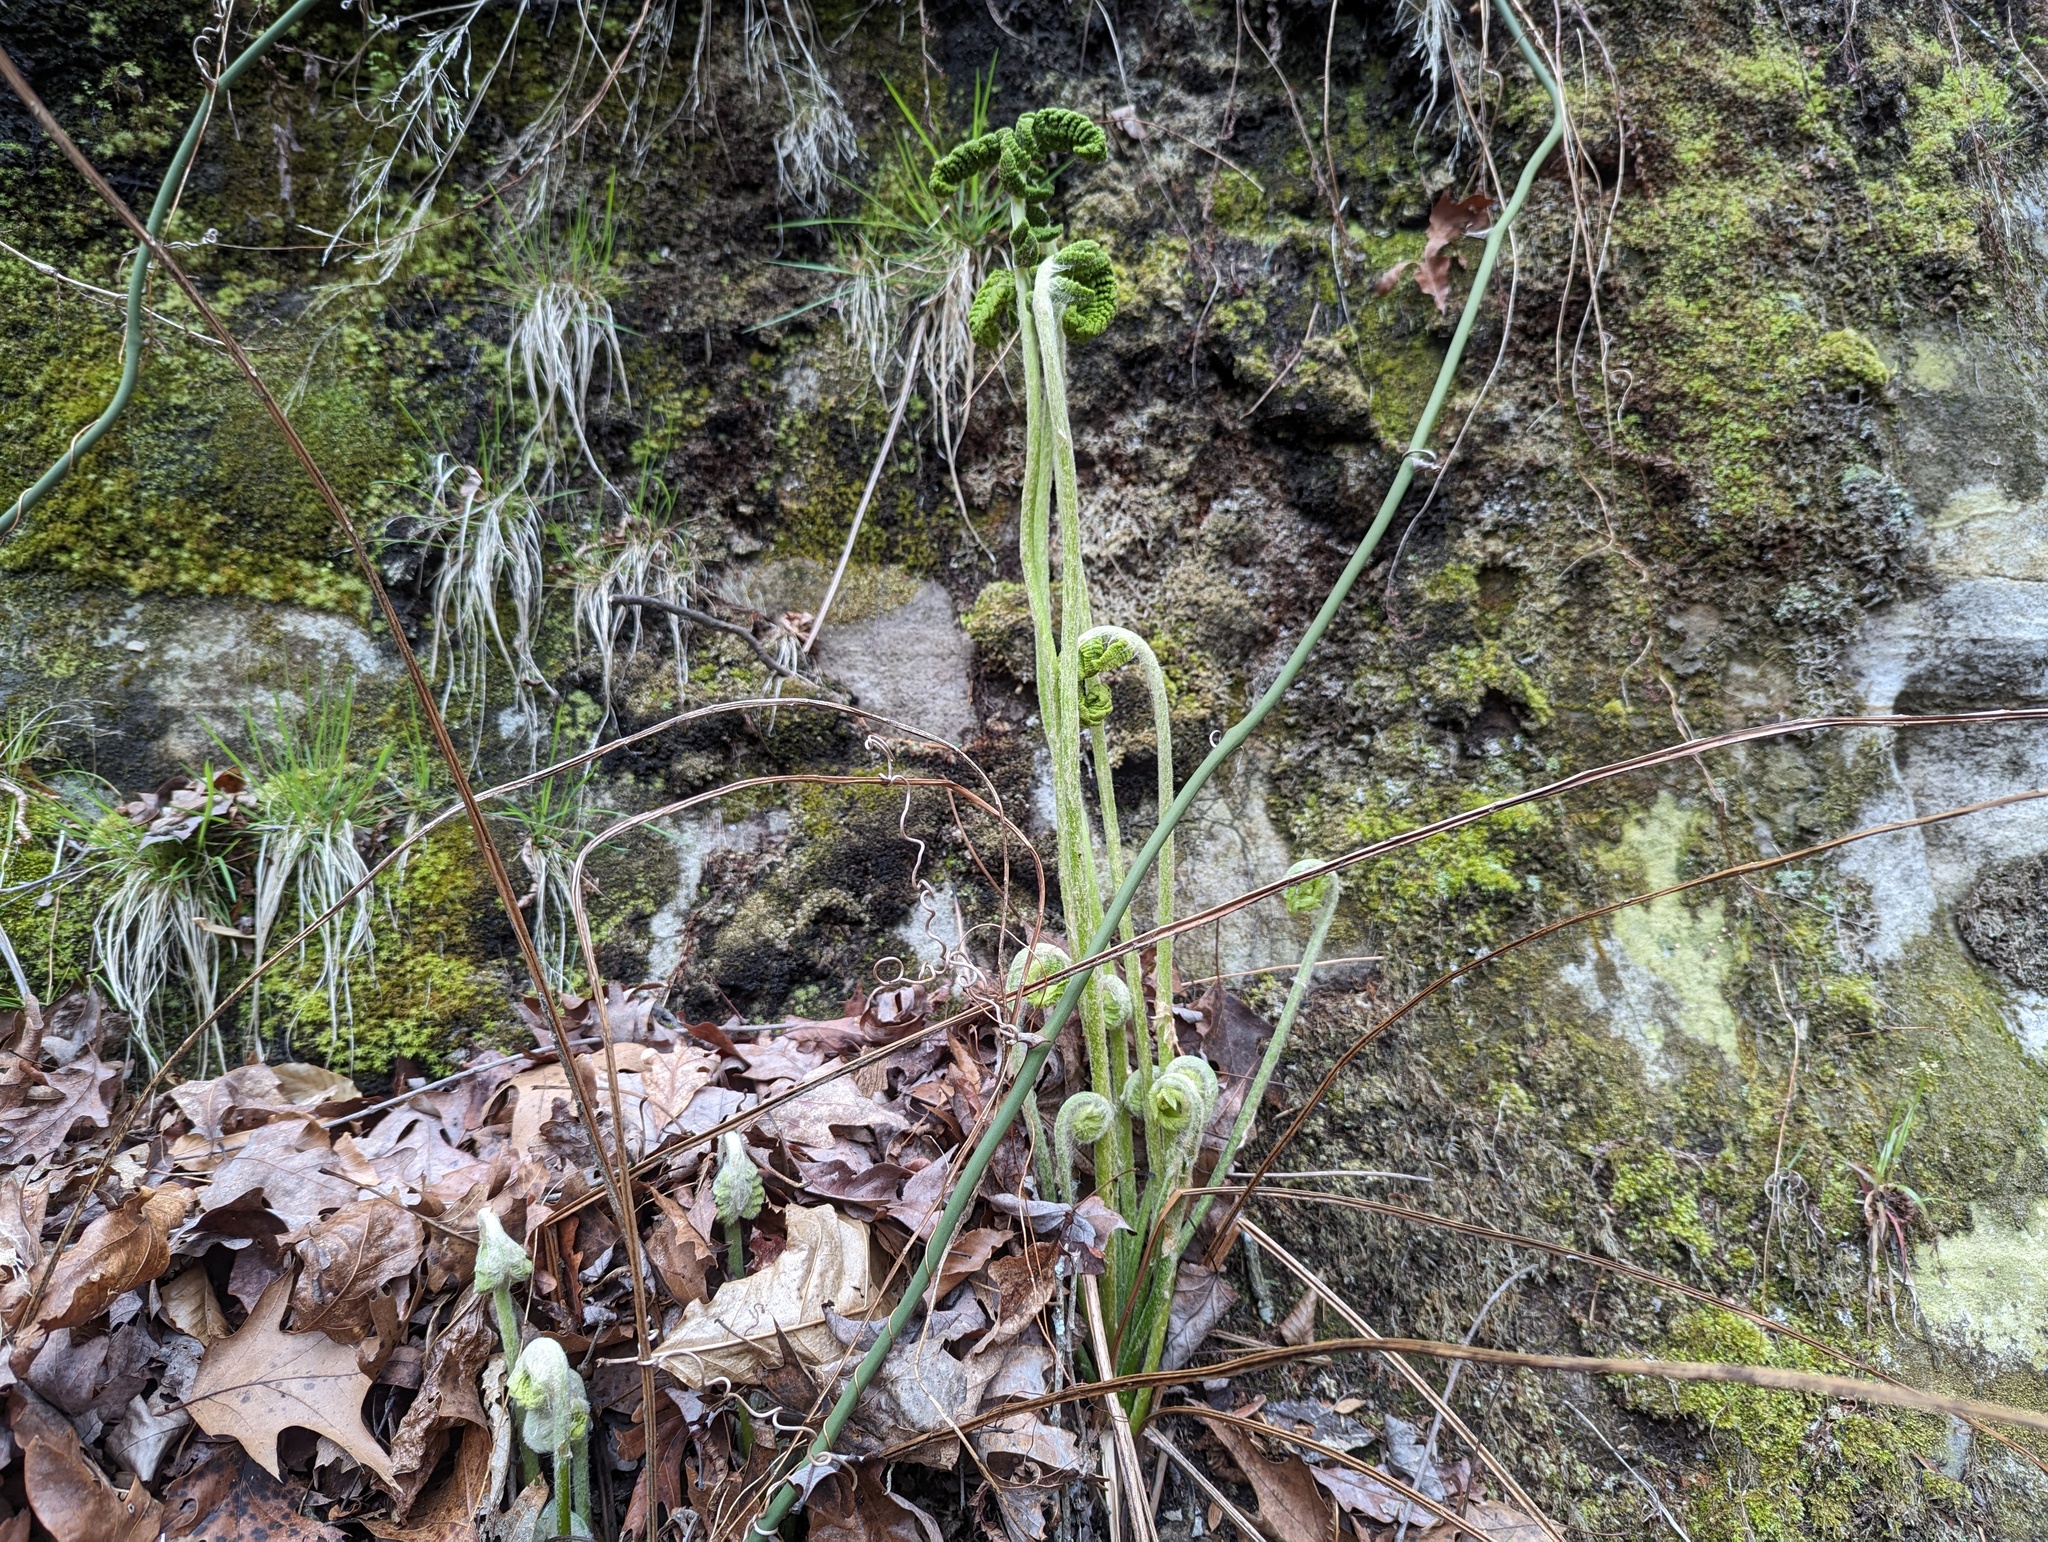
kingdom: Plantae
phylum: Tracheophyta
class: Polypodiopsida
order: Osmundales
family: Osmundaceae
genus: Osmundastrum
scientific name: Osmundastrum cinnamomeum
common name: Cinnamon fern
